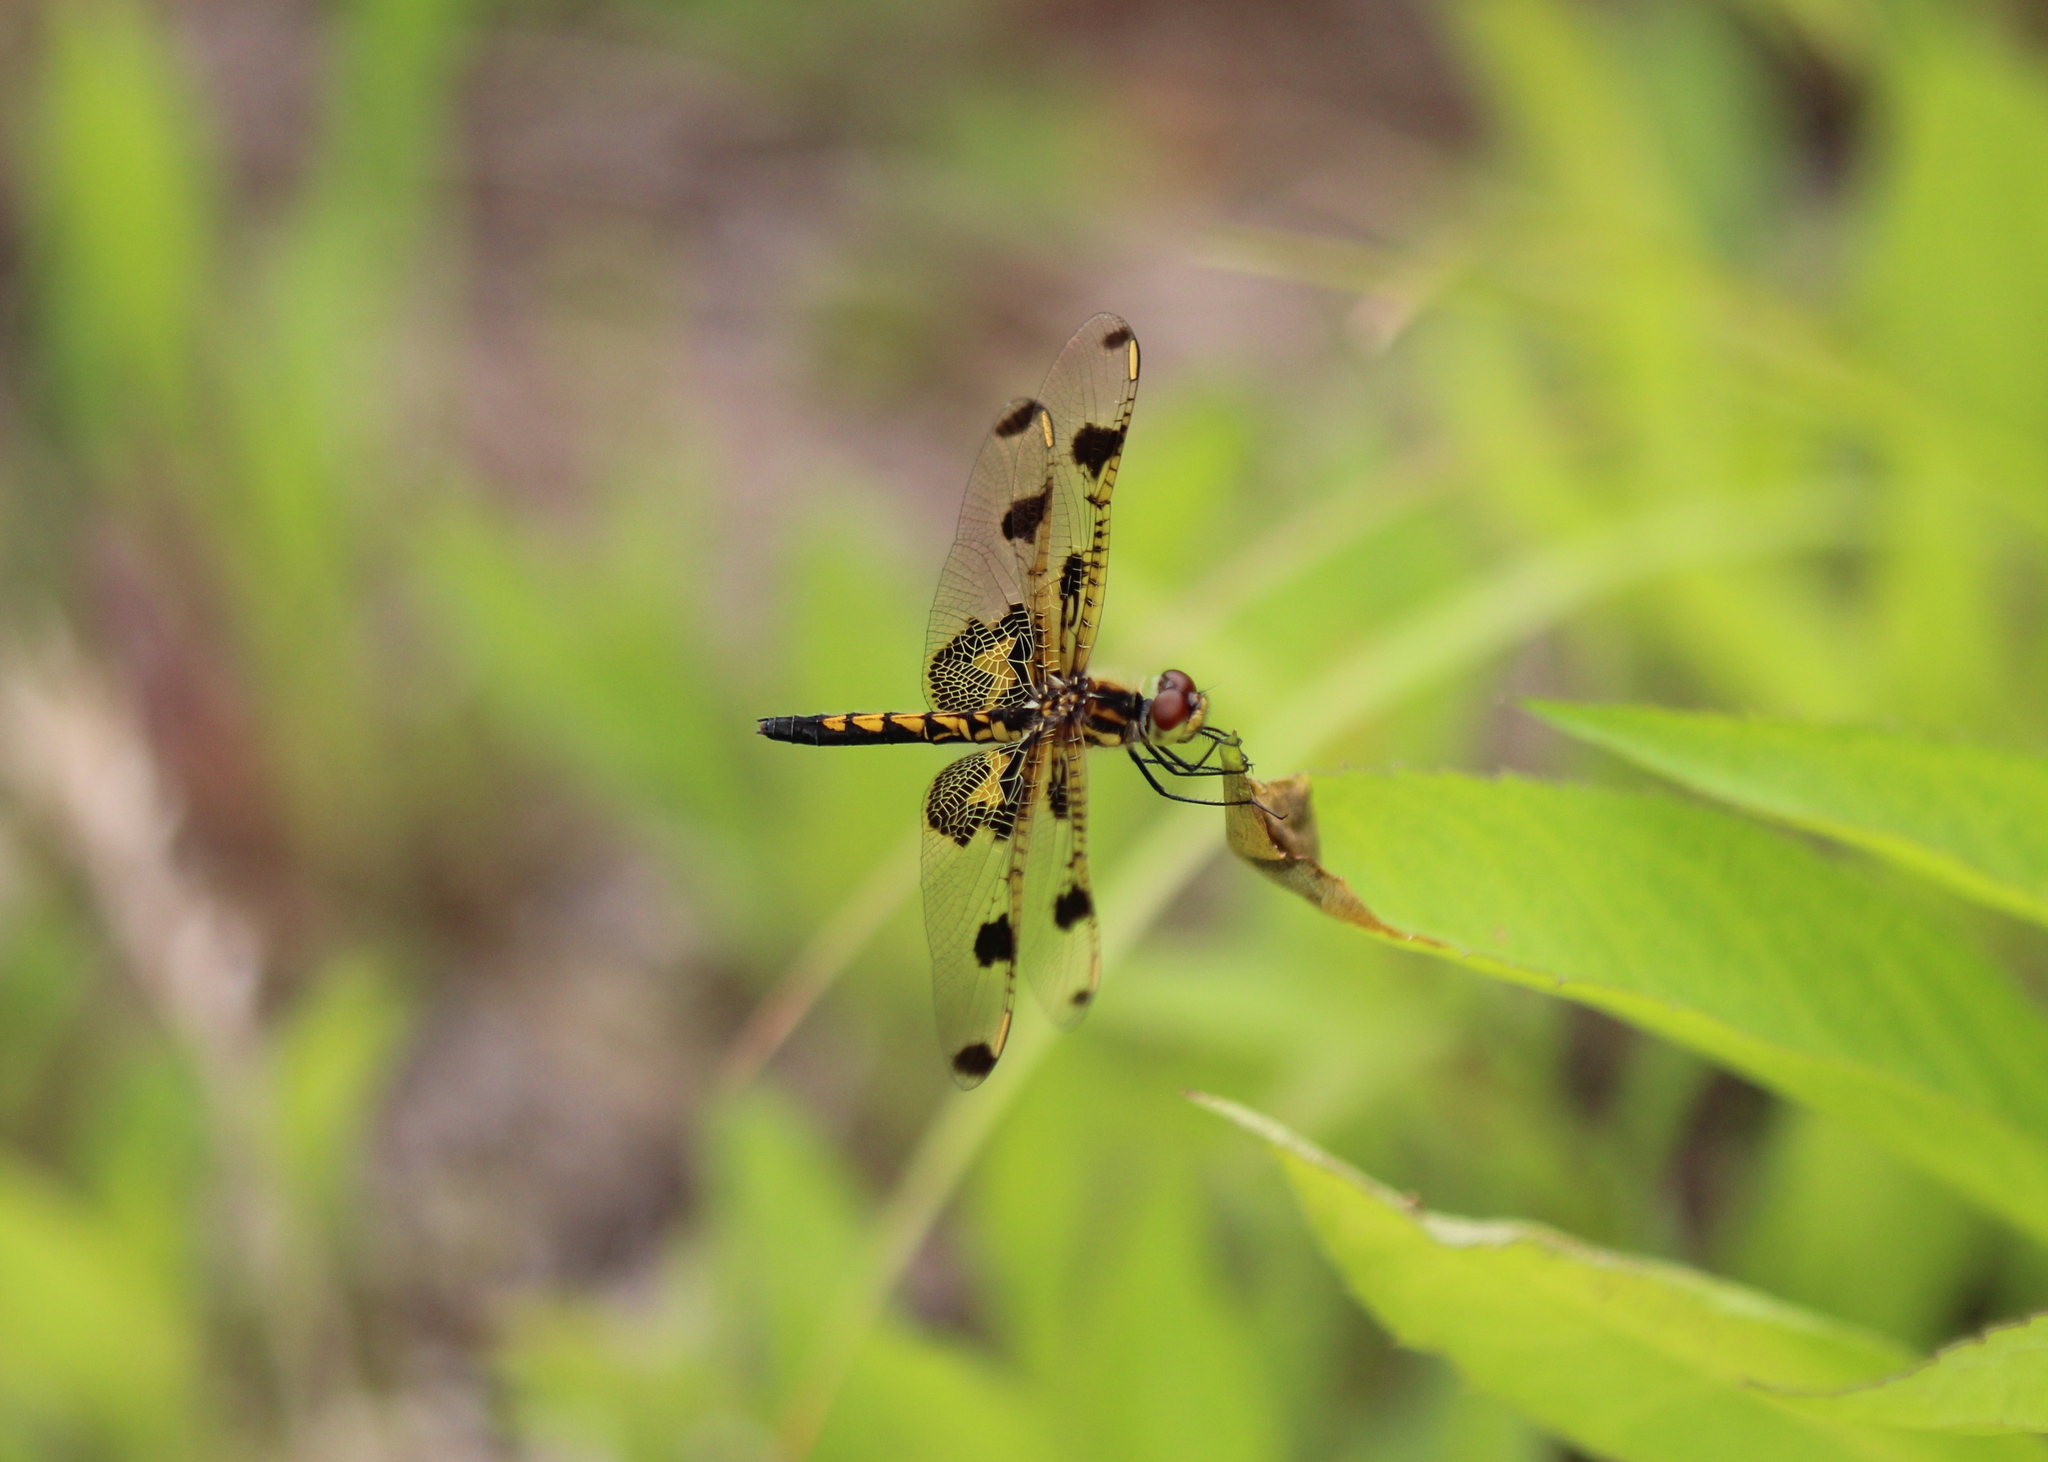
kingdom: Animalia
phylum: Arthropoda
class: Insecta
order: Odonata
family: Libellulidae
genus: Celithemis
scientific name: Celithemis elisa
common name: Calico pennant
